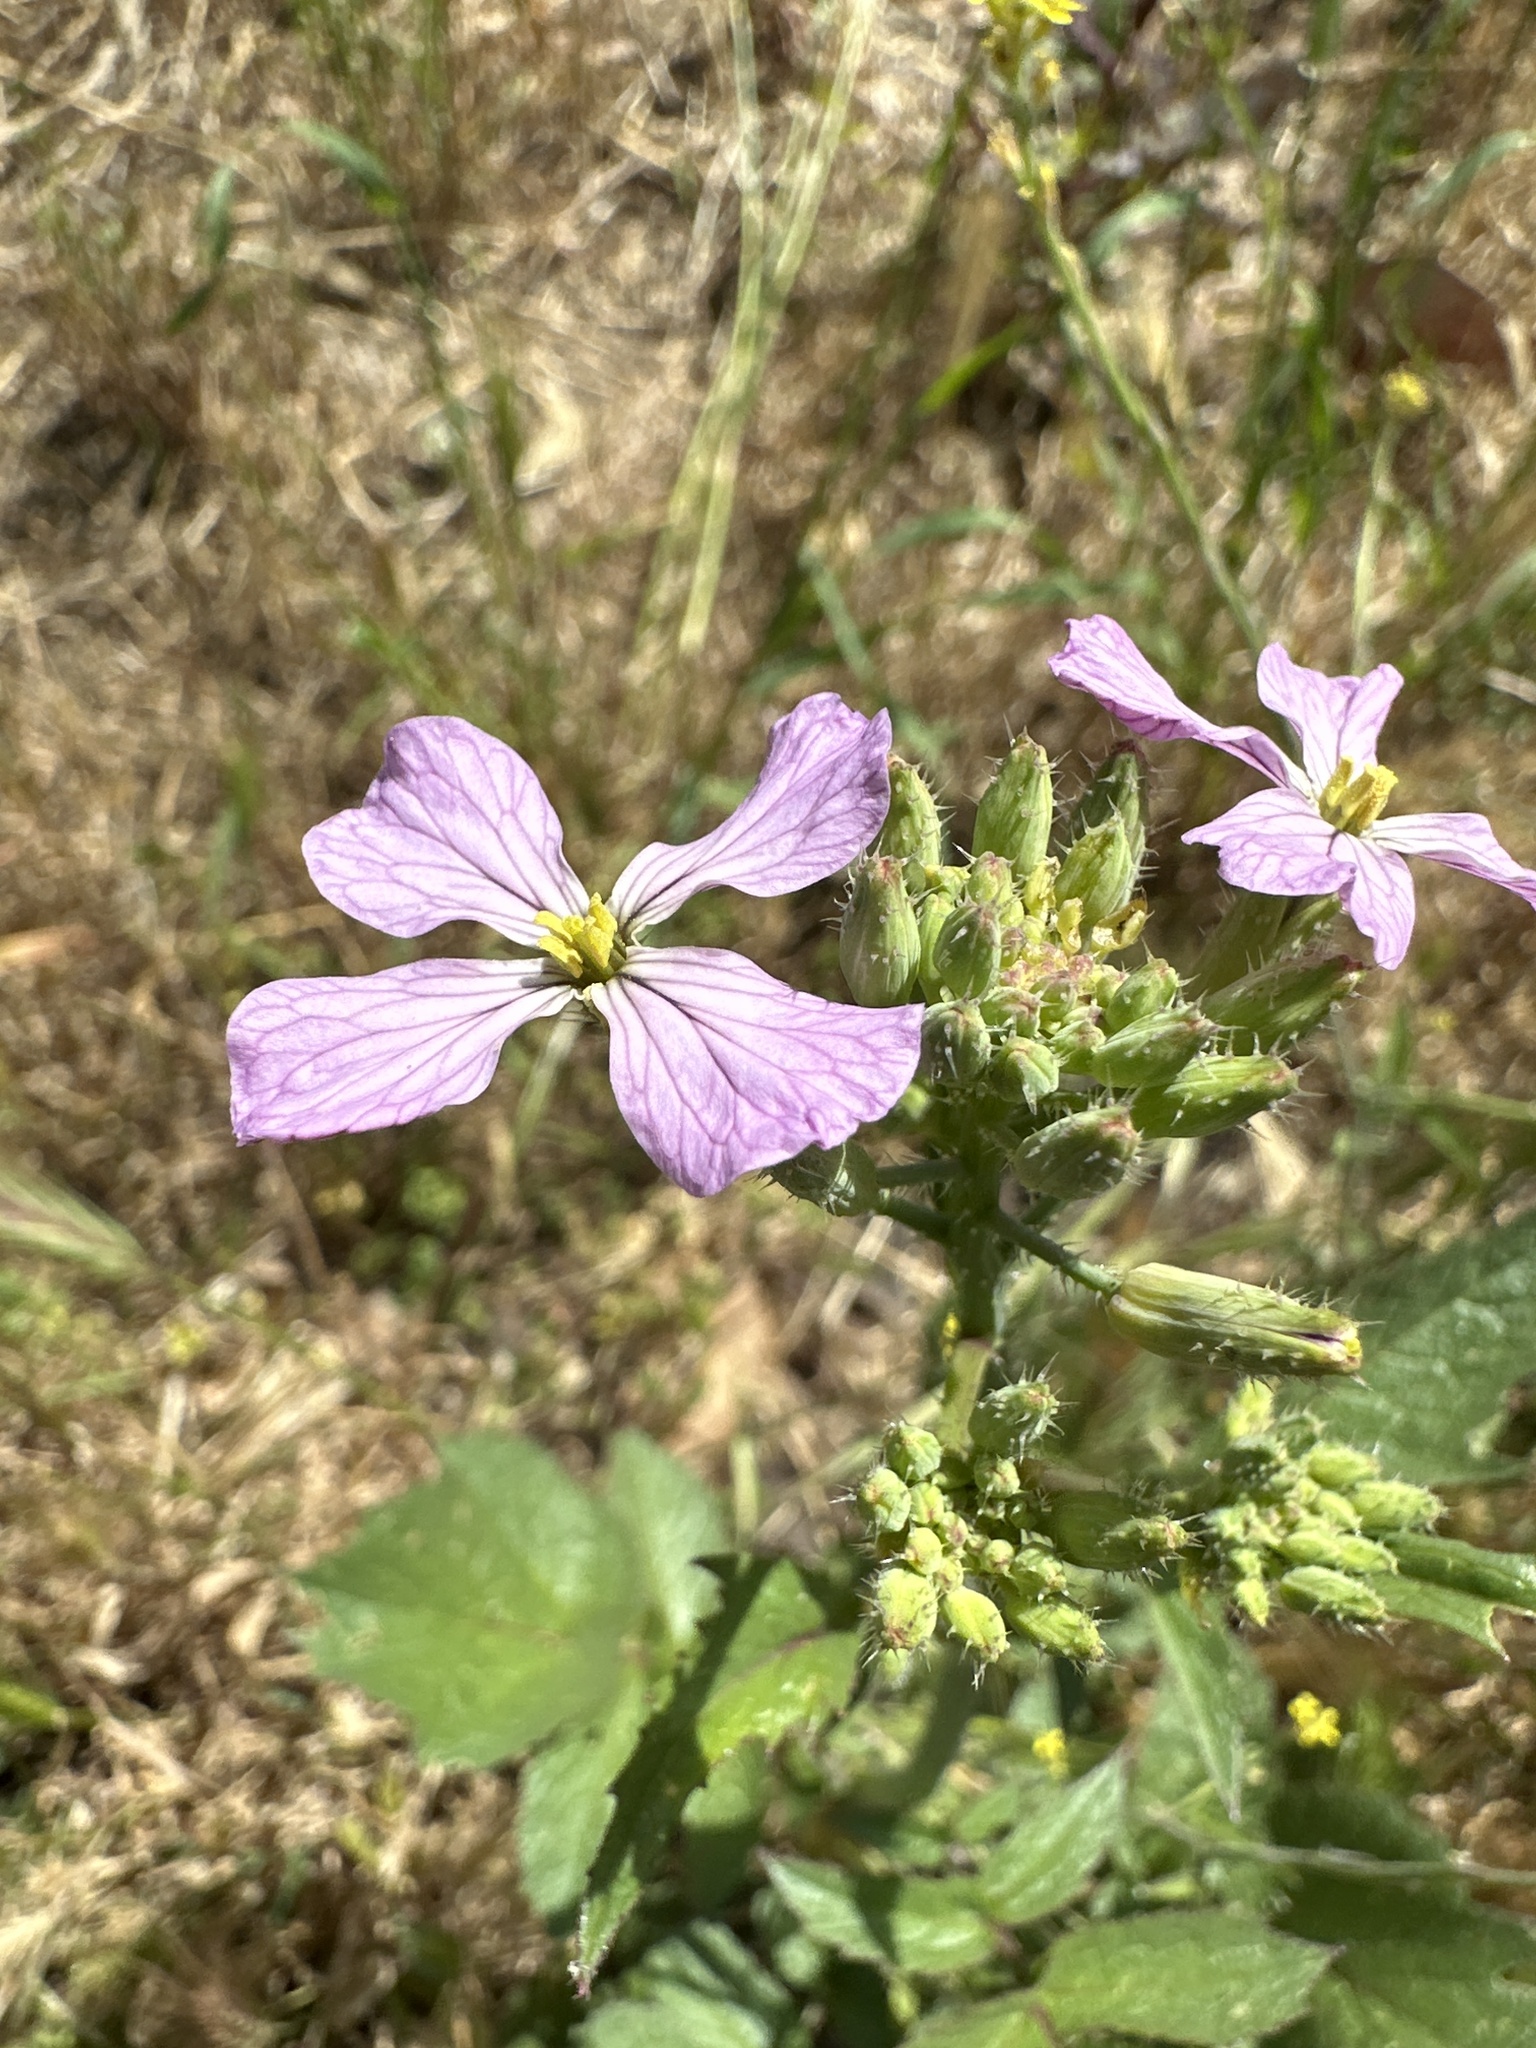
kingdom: Plantae
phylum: Tracheophyta
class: Magnoliopsida
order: Brassicales
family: Brassicaceae
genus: Raphanus
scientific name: Raphanus sativus
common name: Cultivated radish
